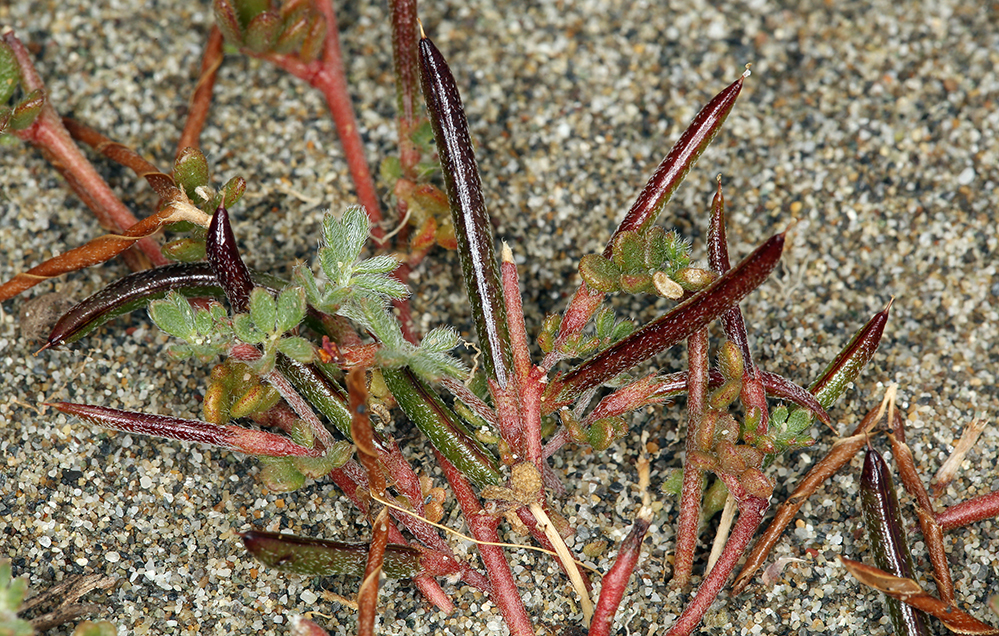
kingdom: Plantae
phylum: Tracheophyta
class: Magnoliopsida
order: Fabales
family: Fabaceae
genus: Acmispon
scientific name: Acmispon strigosus
